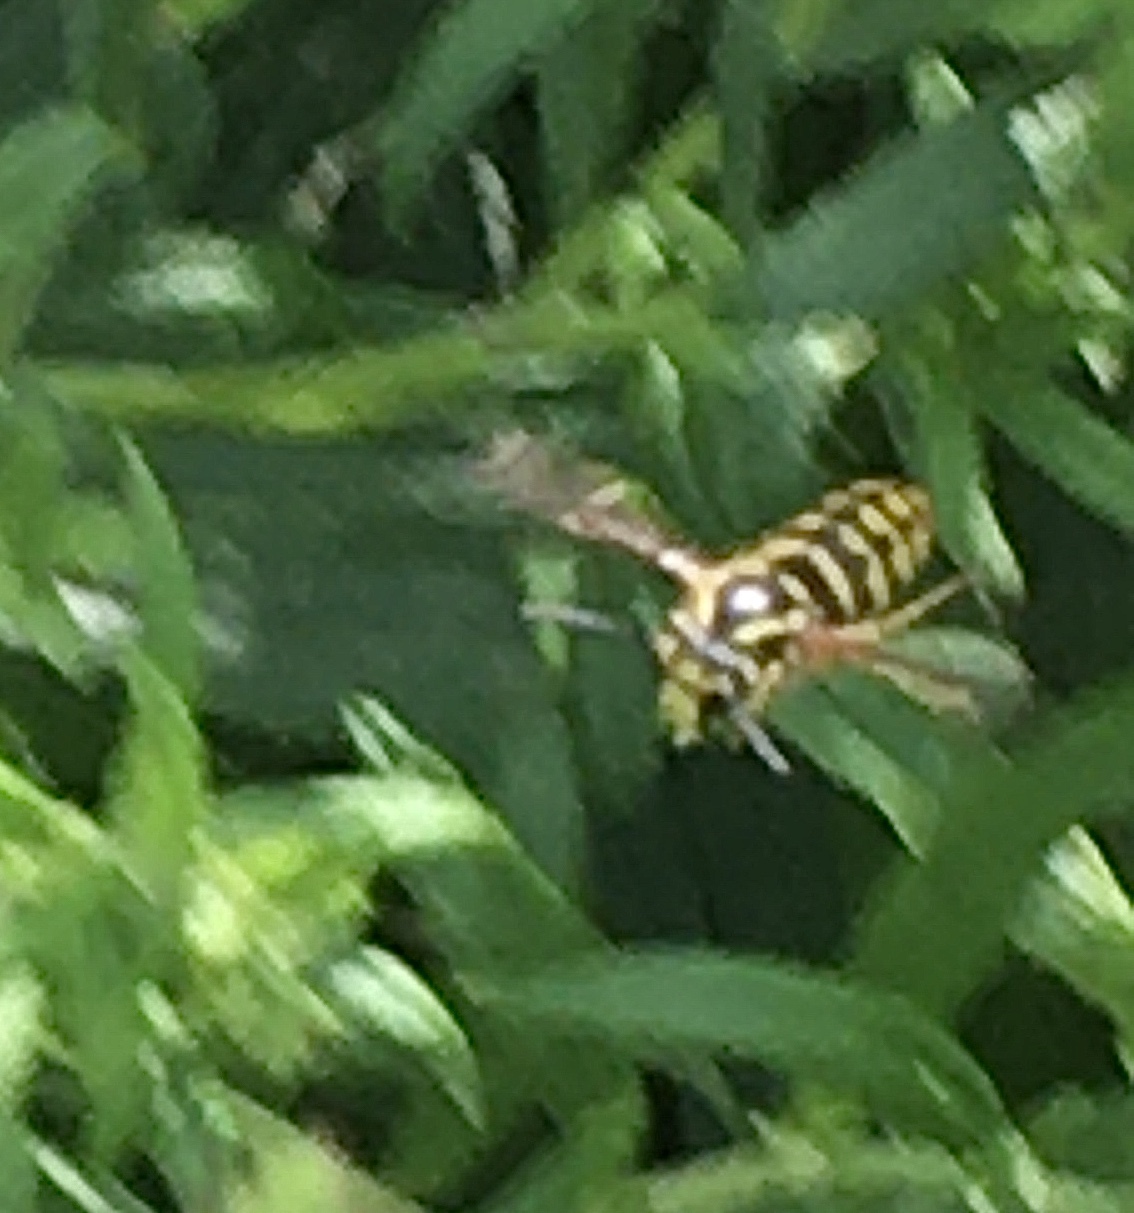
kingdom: Animalia
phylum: Arthropoda
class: Insecta
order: Hymenoptera
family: Vespidae
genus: Dolichovespula
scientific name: Dolichovespula arenaria
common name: Aerial yellowjacket
